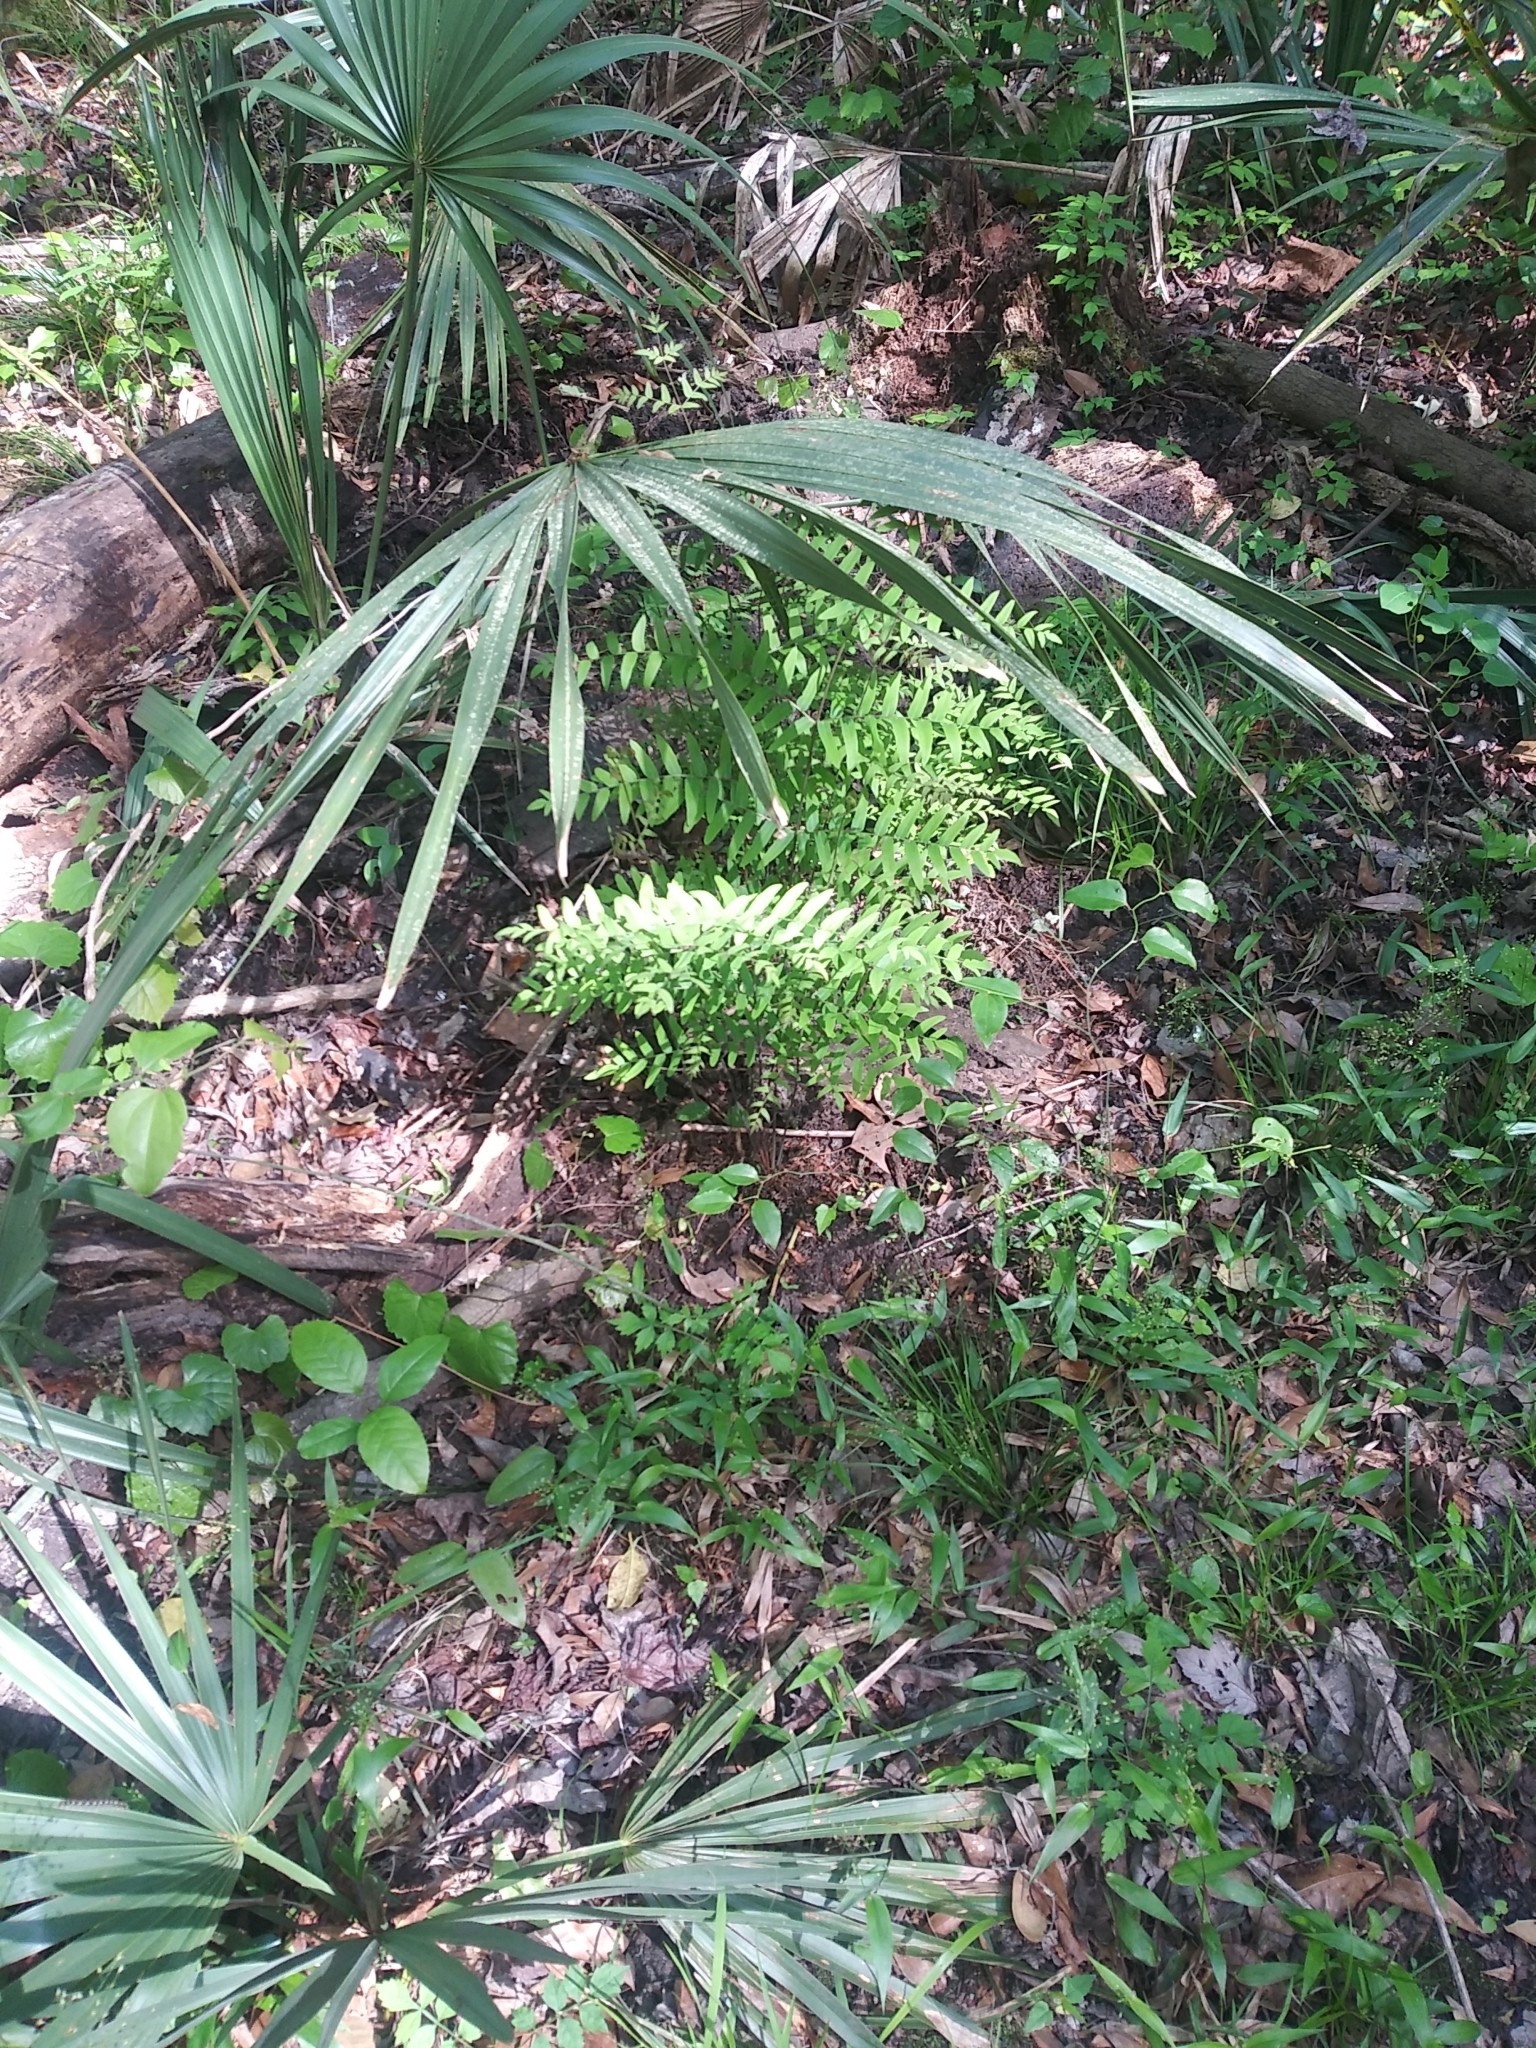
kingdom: Plantae
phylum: Tracheophyta
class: Polypodiopsida
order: Osmundales
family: Osmundaceae
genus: Osmunda
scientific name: Osmunda spectabilis
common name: American royal fern
